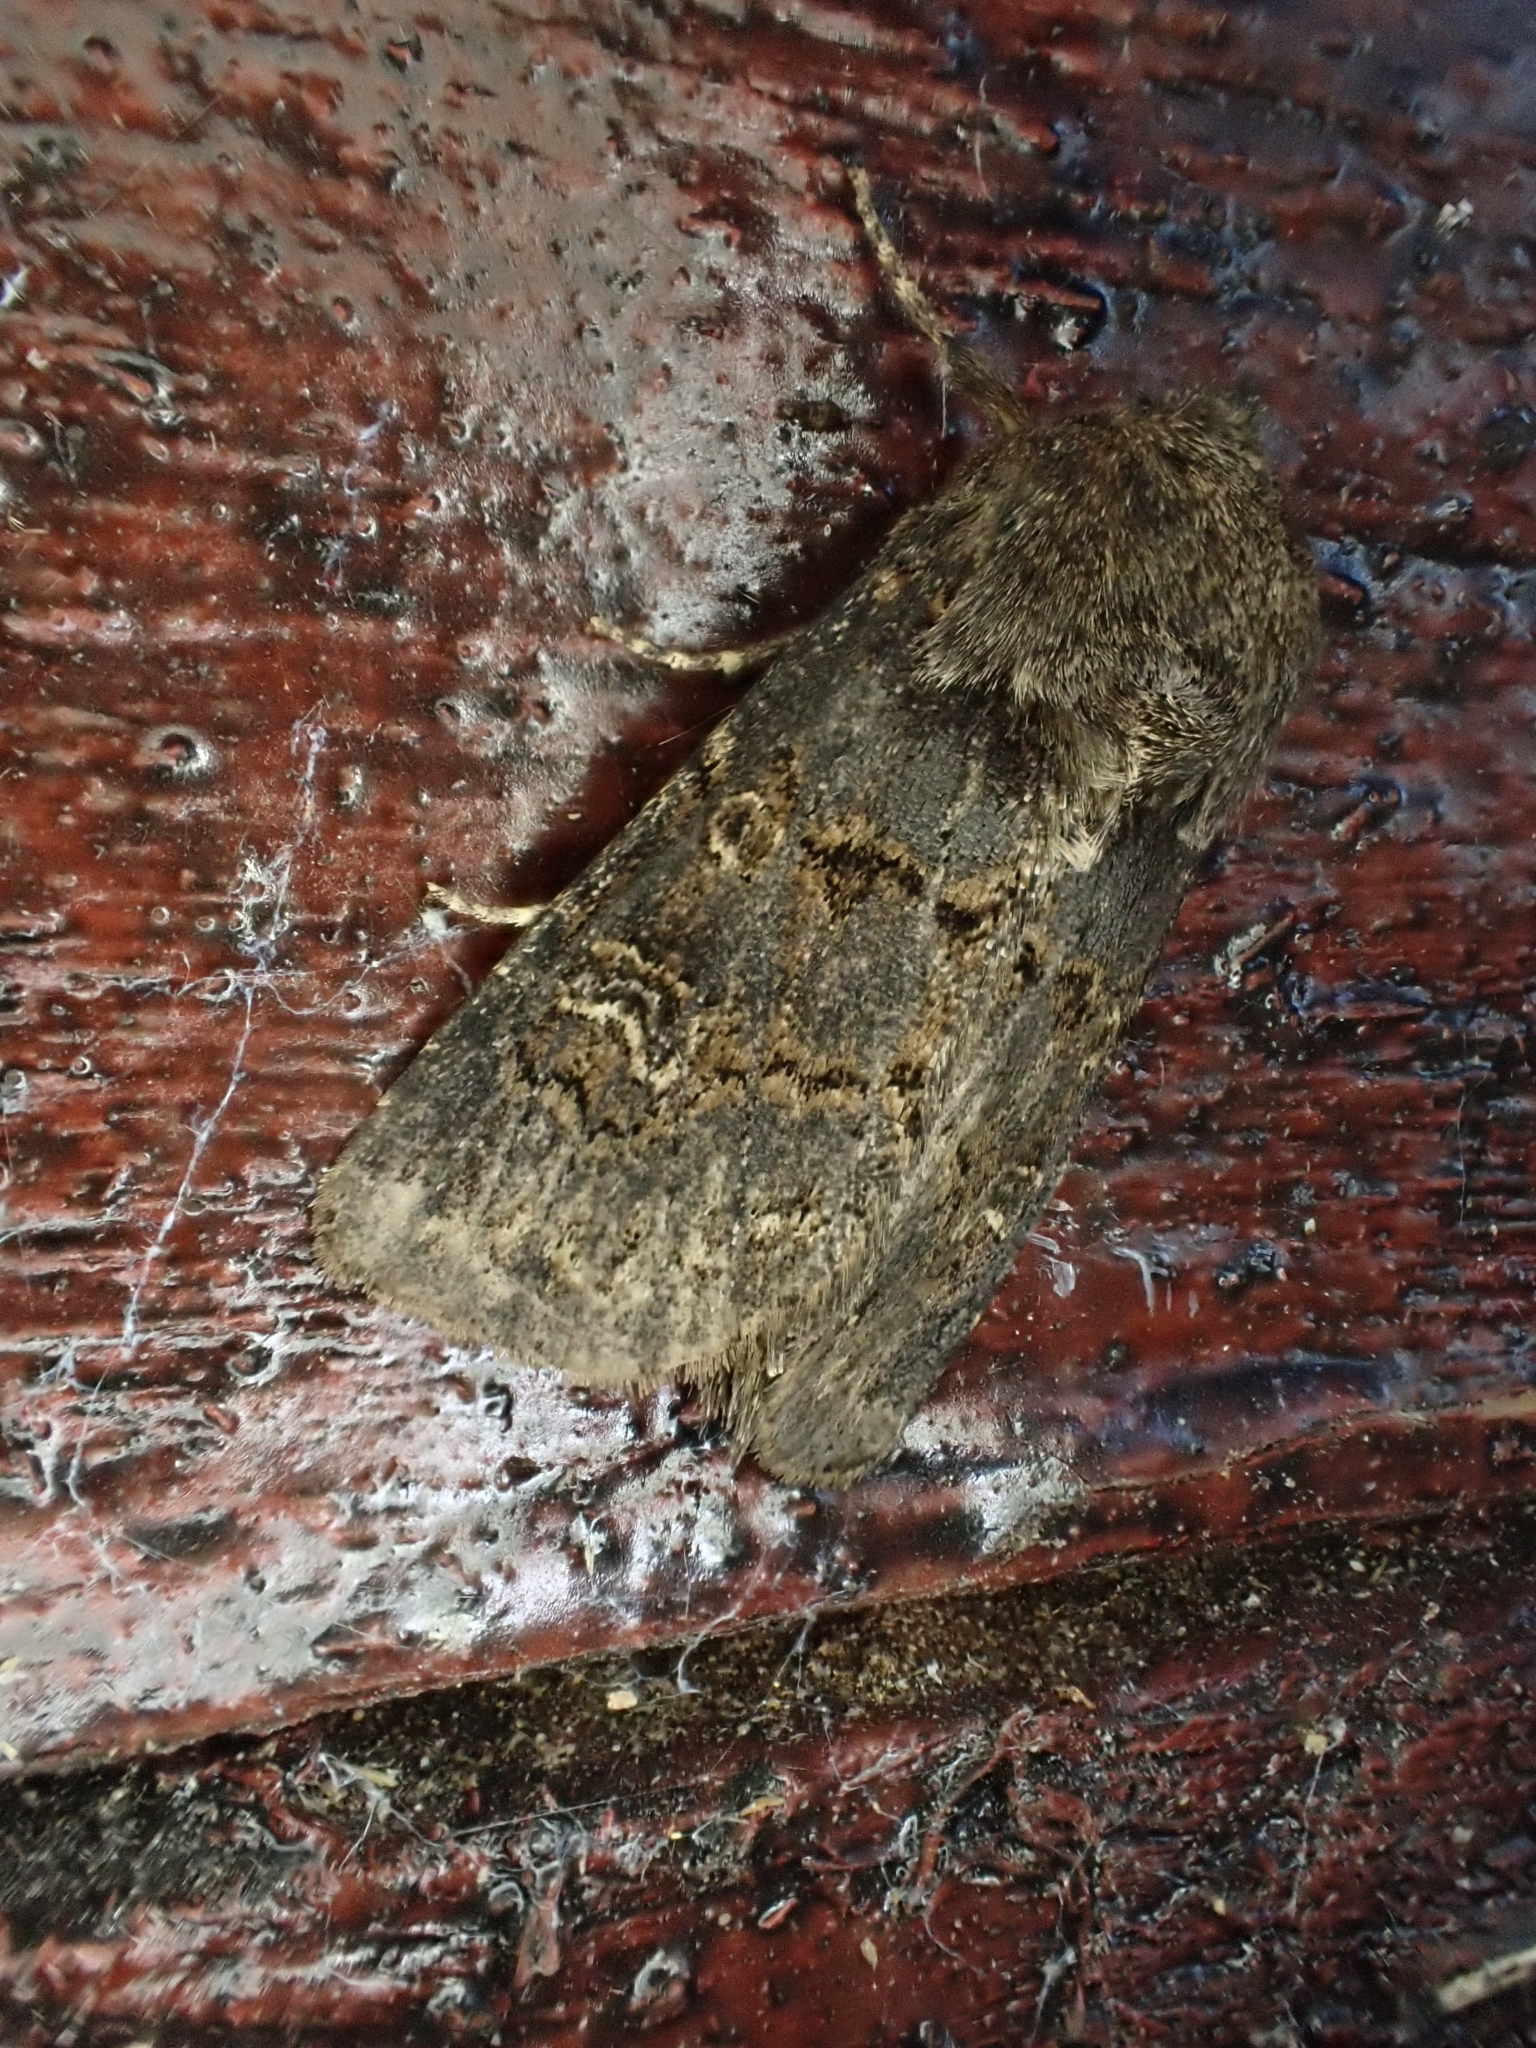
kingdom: Animalia
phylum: Arthropoda
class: Insecta
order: Lepidoptera
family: Noctuidae
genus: Tholera
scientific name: Tholera cespitis
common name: Hedge rustic
